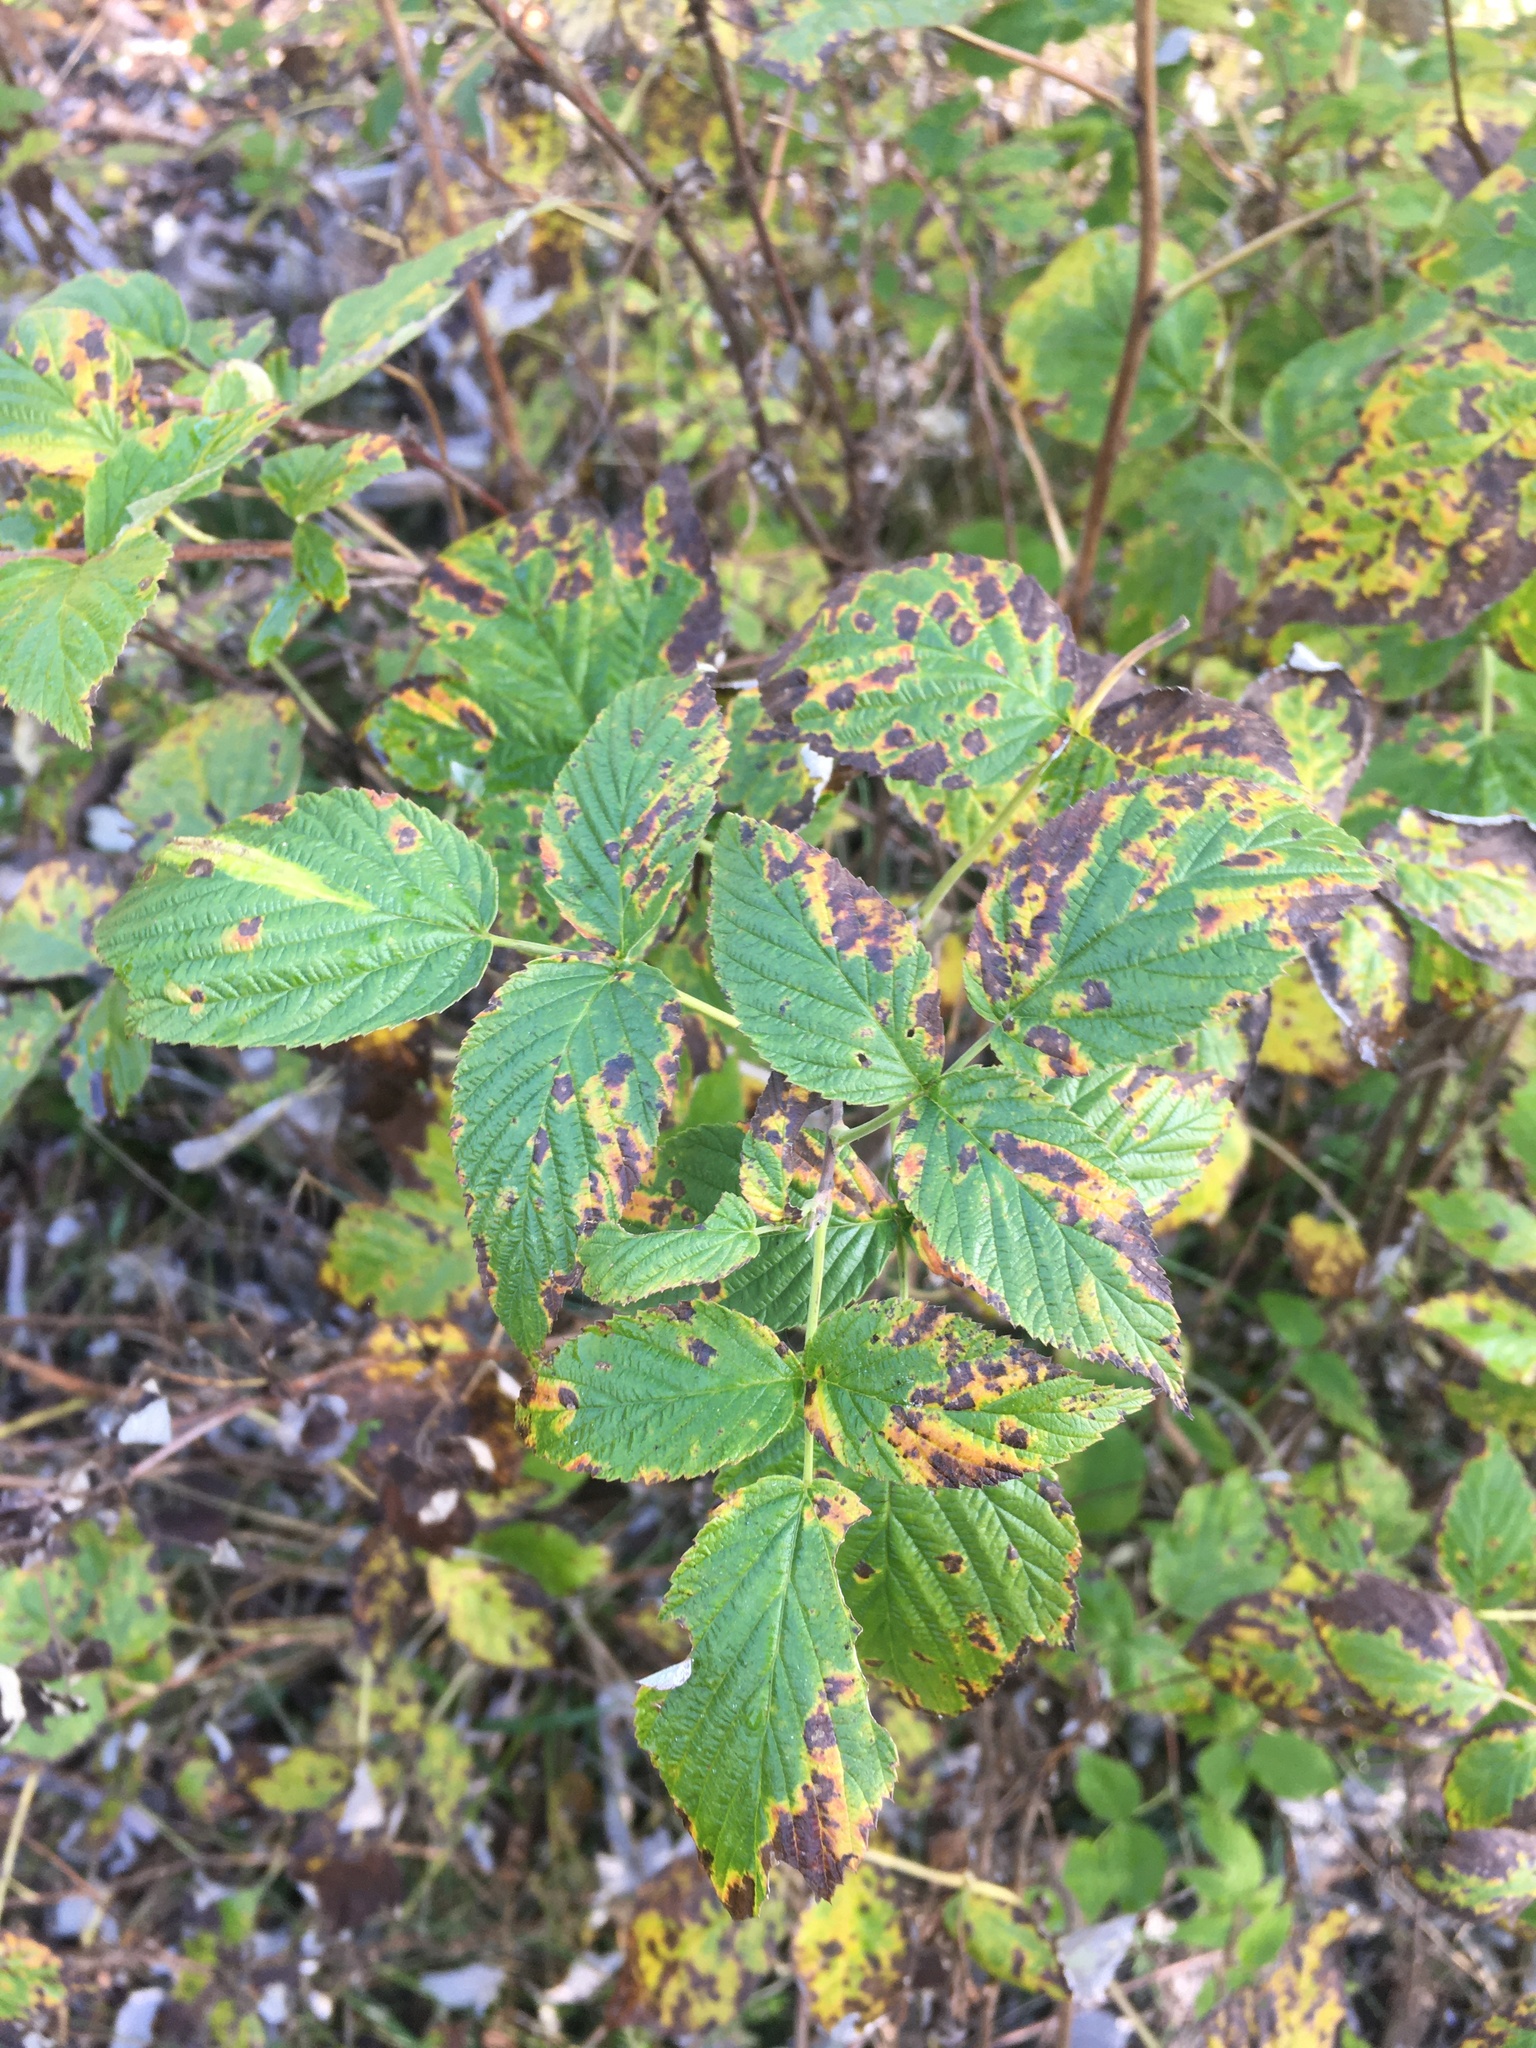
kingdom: Plantae
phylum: Tracheophyta
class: Magnoliopsida
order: Rosales
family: Rosaceae
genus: Rubus
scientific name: Rubus idaeus
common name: Raspberry
